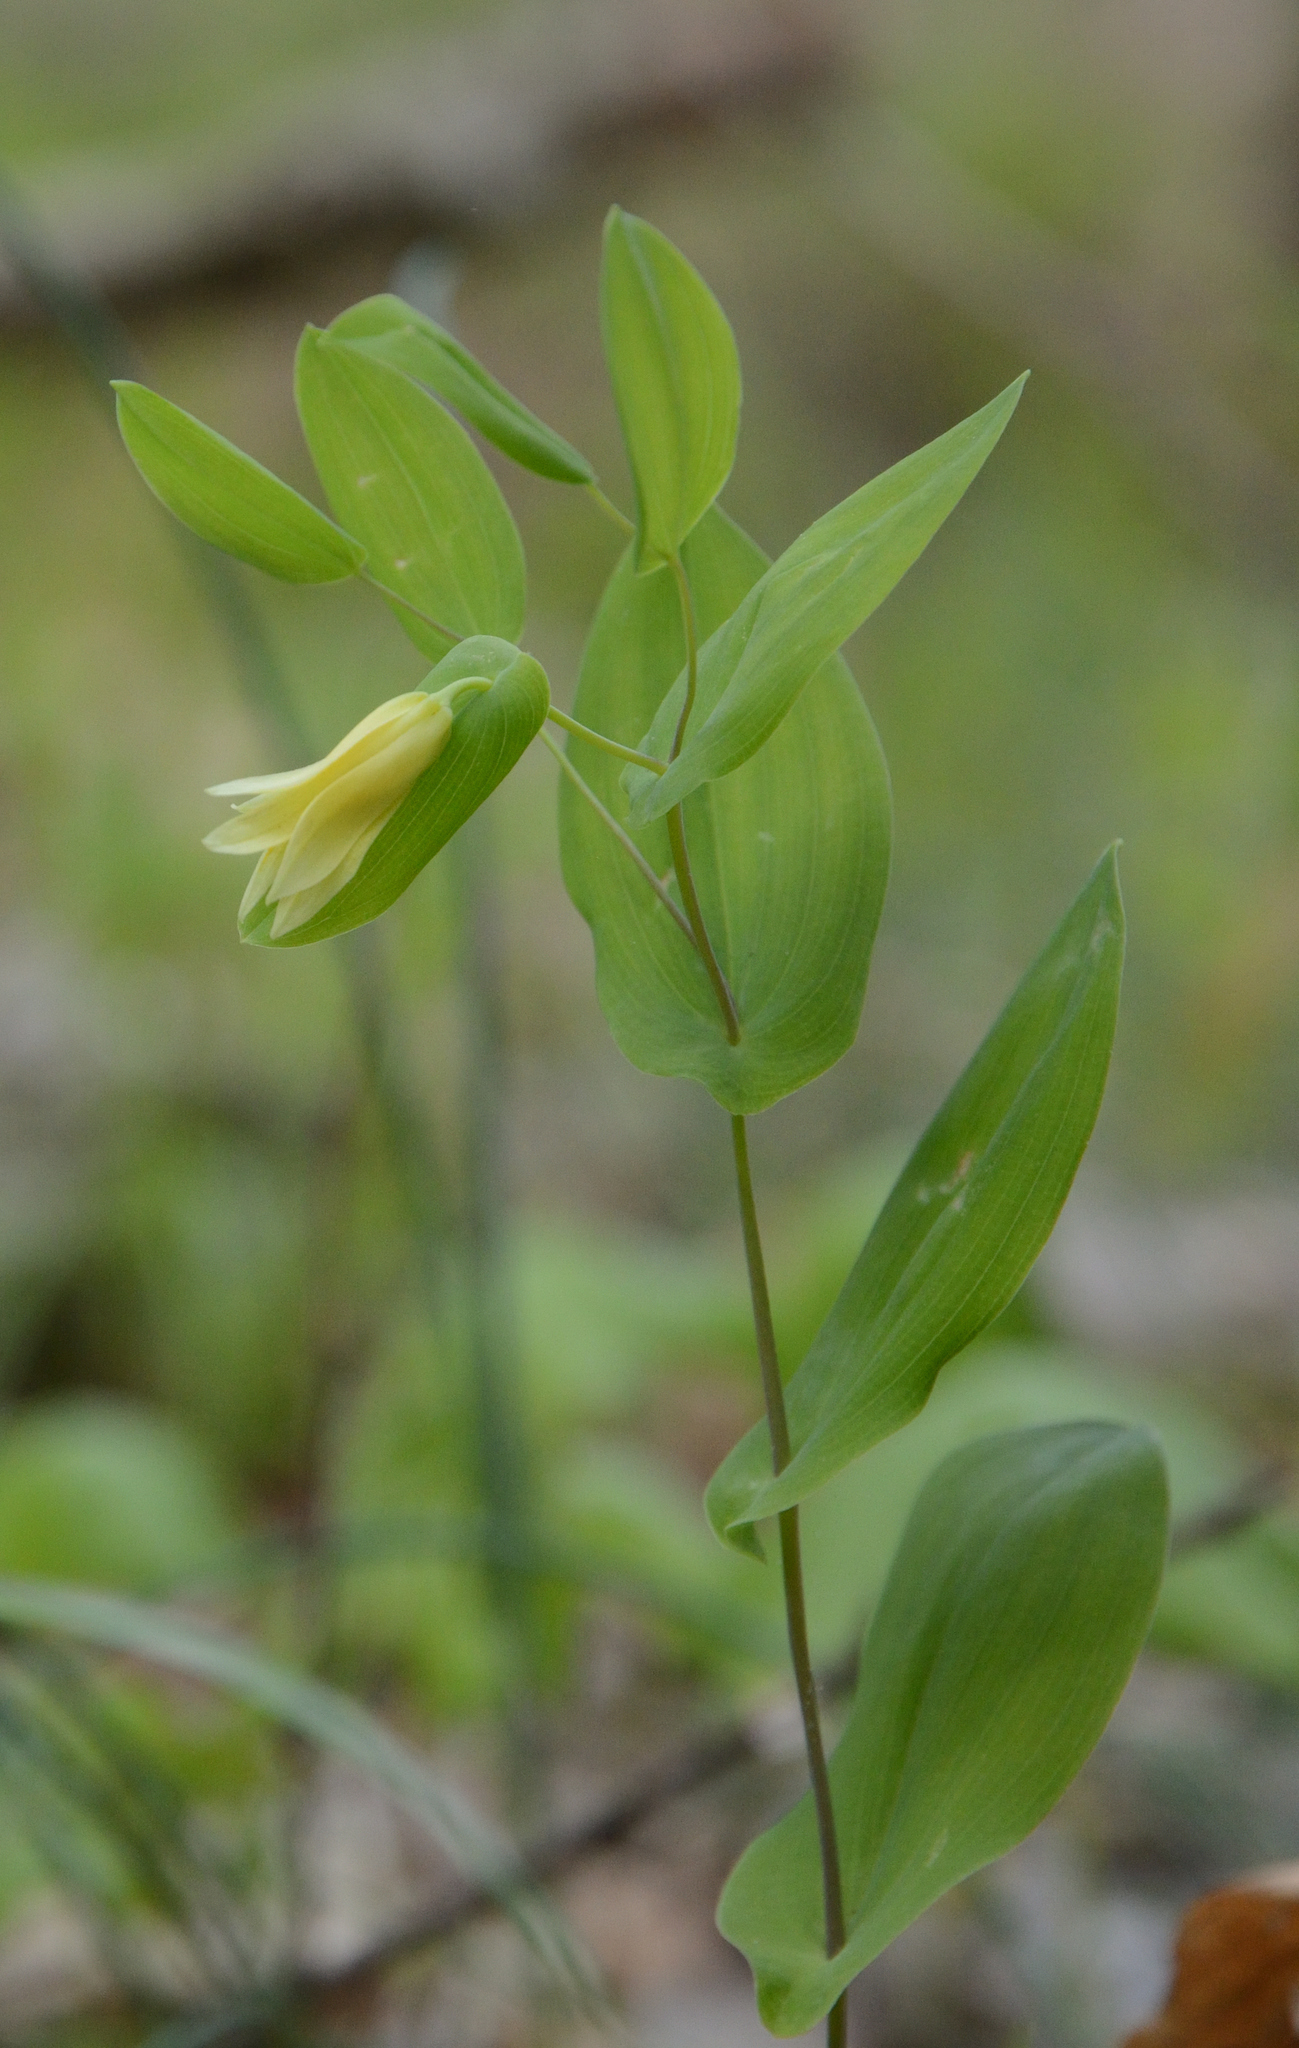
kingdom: Plantae
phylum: Tracheophyta
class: Liliopsida
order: Liliales
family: Colchicaceae
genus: Uvularia
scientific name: Uvularia perfoliata
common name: Perfoliate bellwort
